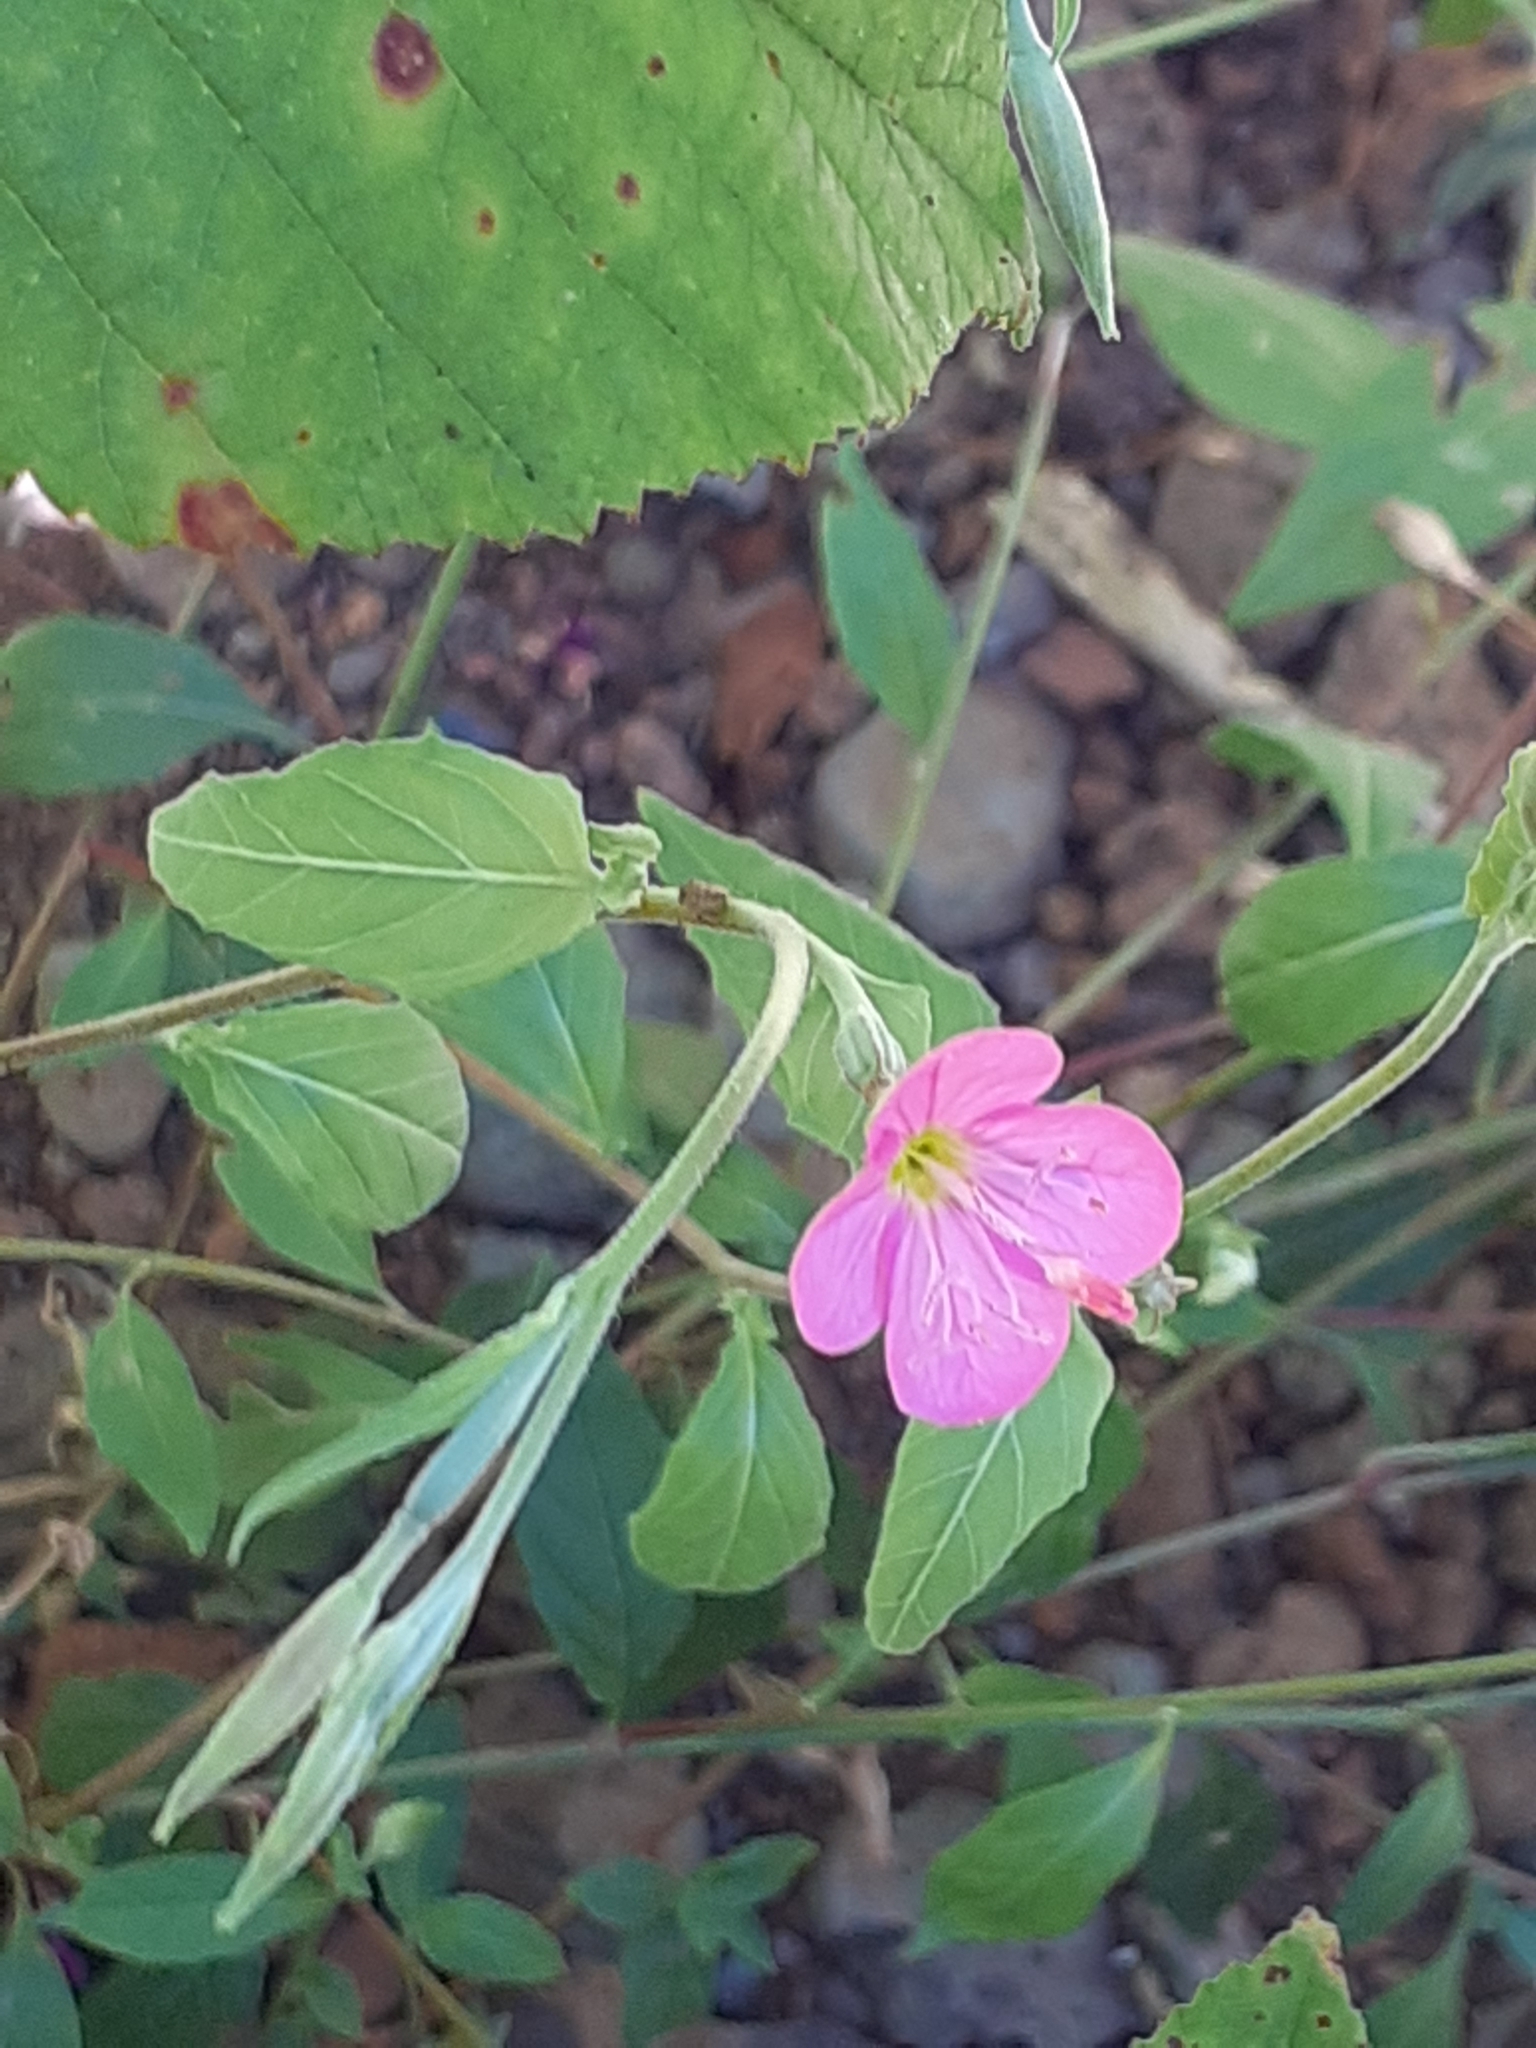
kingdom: Plantae
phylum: Tracheophyta
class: Magnoliopsida
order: Myrtales
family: Onagraceae
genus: Oenothera
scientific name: Oenothera rosea
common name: Rosy evening-primrose
